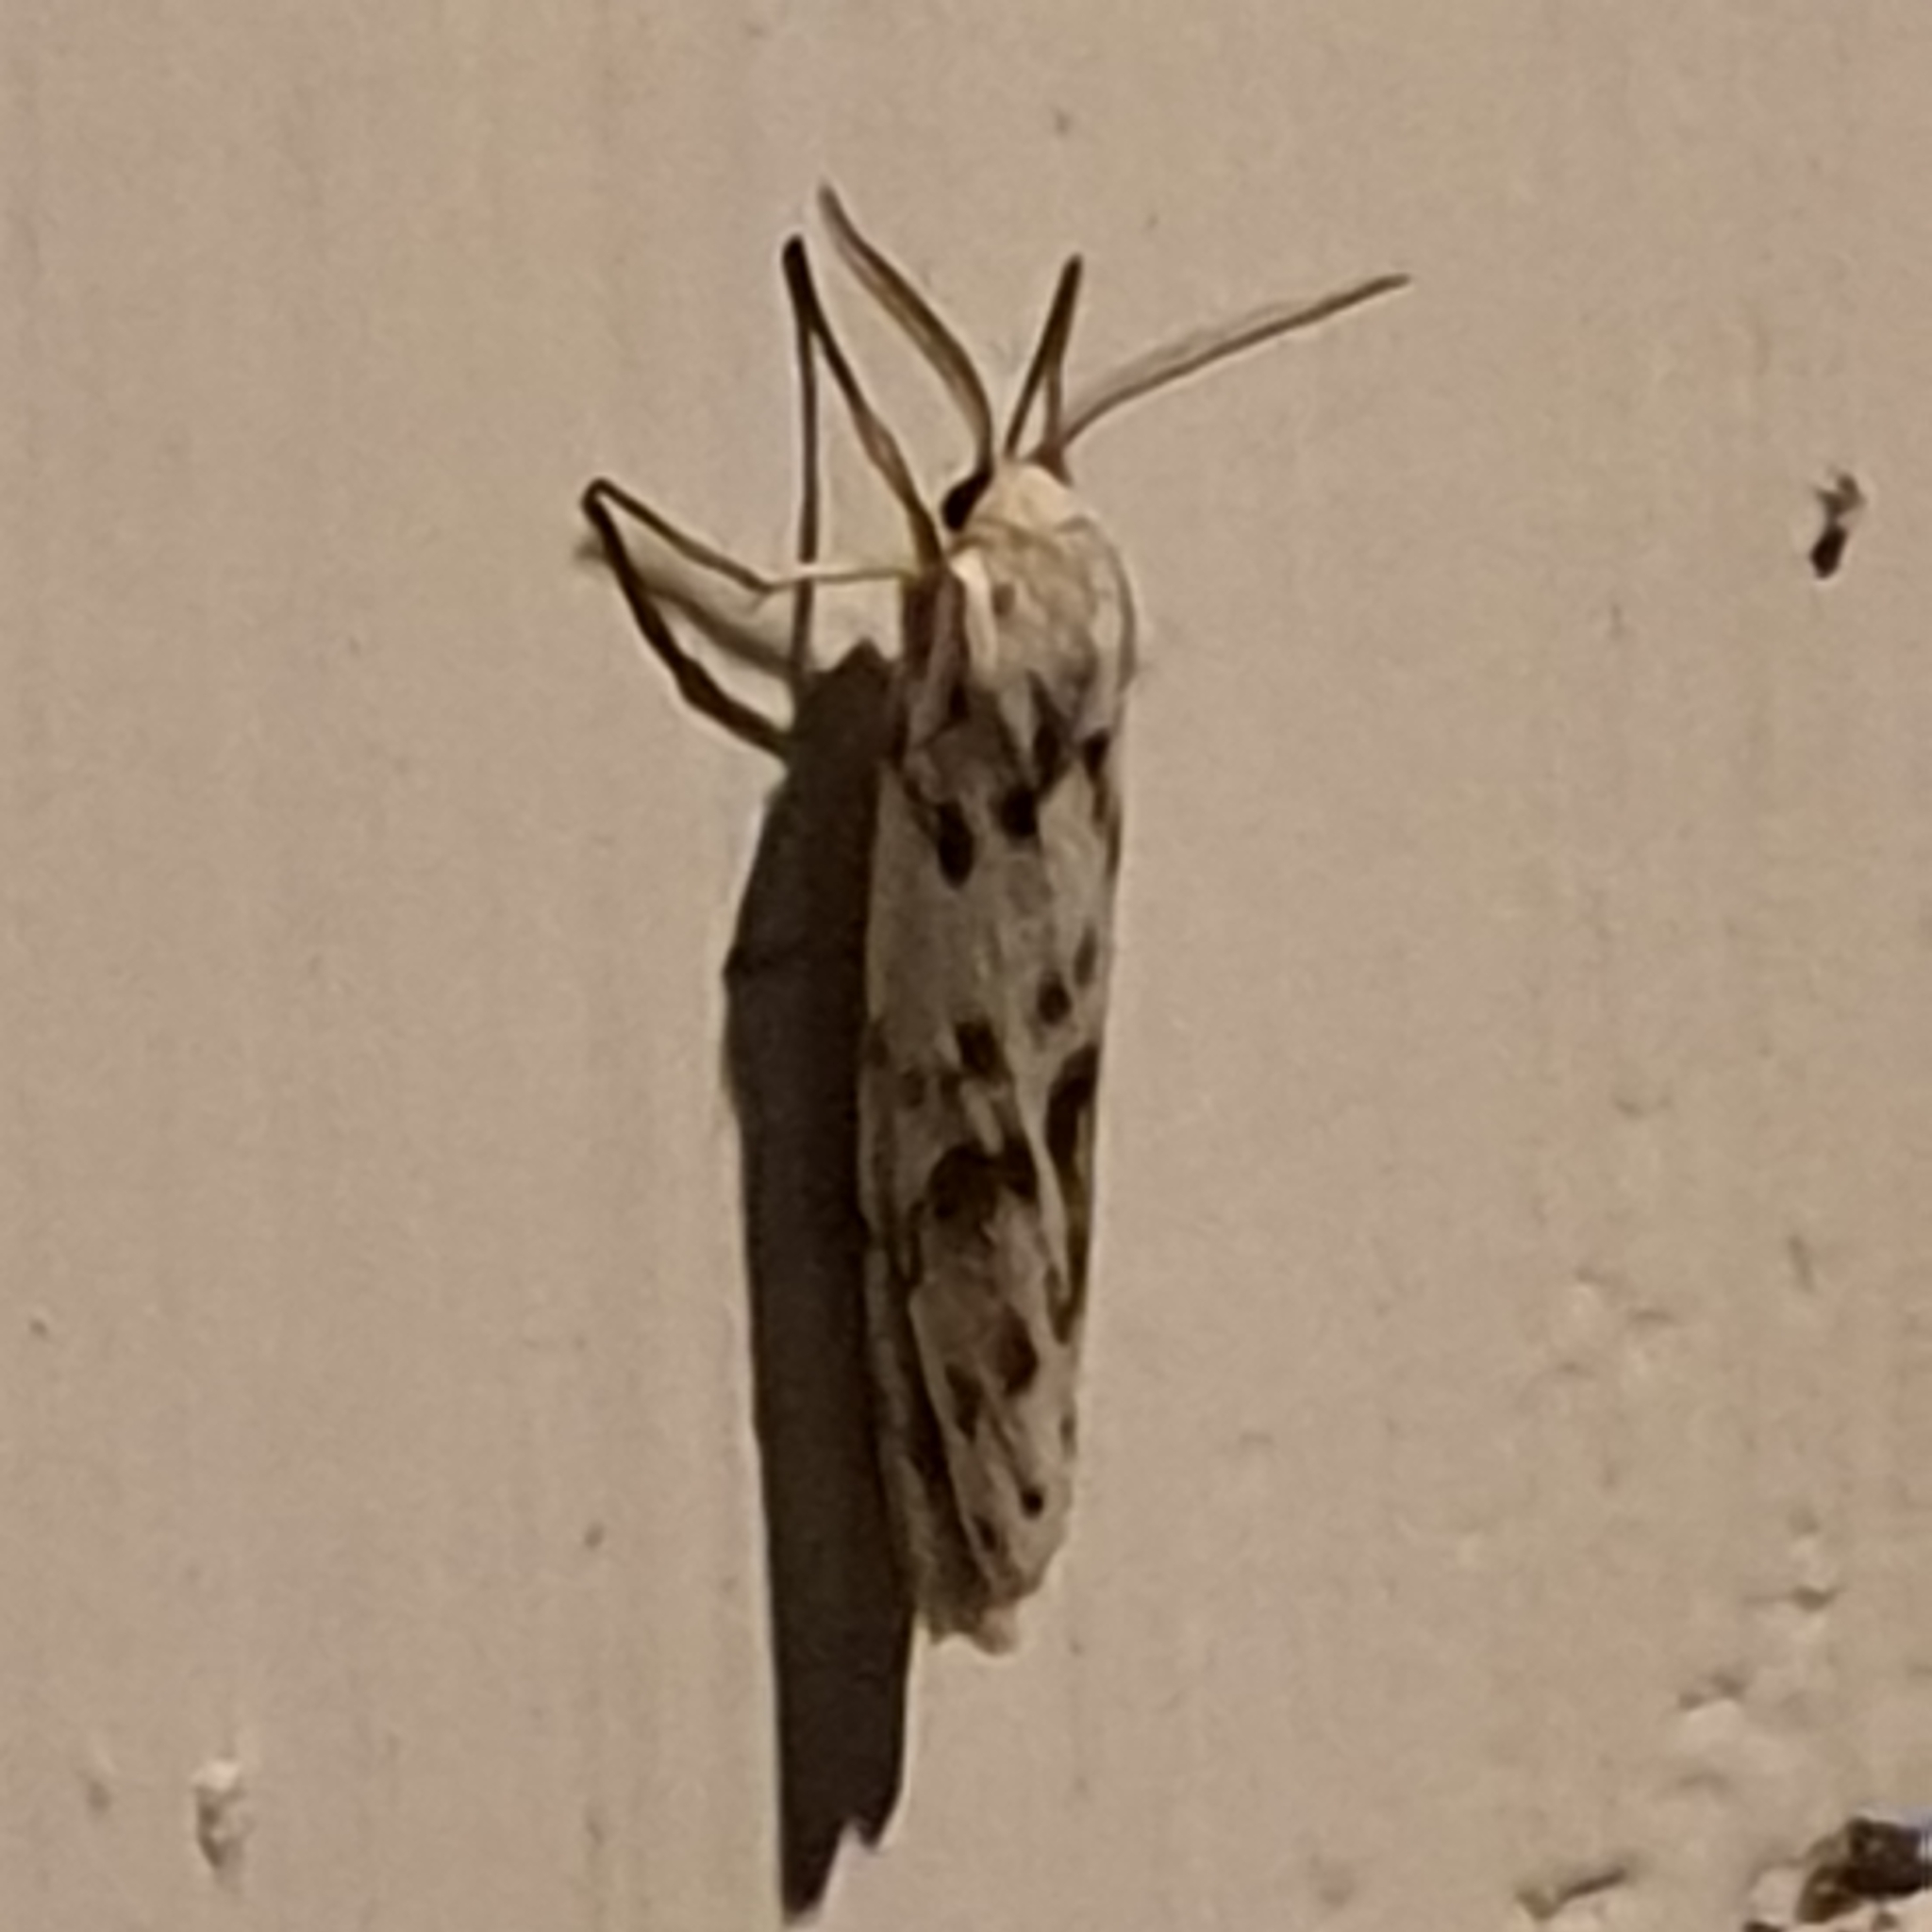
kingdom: Animalia
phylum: Arthropoda
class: Insecta
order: Lepidoptera
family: Erebidae
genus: Coscinia
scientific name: Coscinia cribraria
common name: Speckled footman
